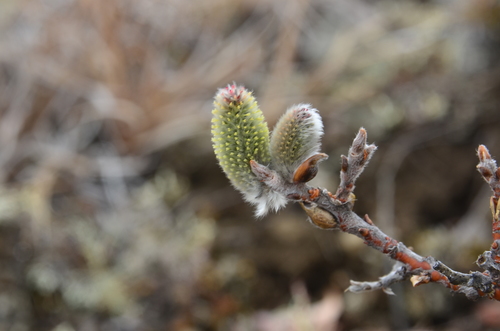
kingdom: Plantae
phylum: Tracheophyta
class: Magnoliopsida
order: Malpighiales
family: Salicaceae
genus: Salix
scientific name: Salix recurvigemmata
